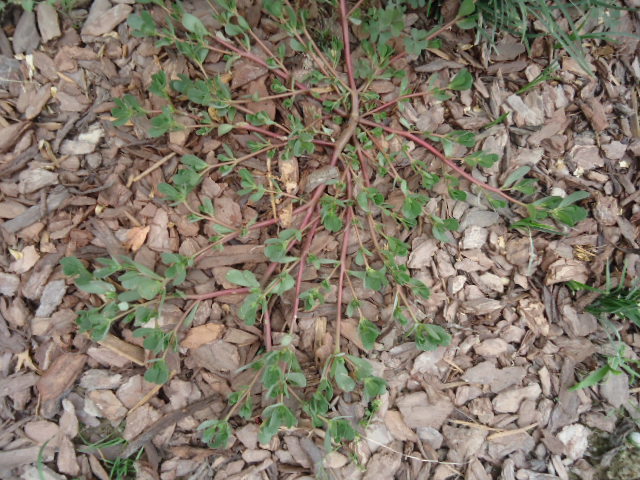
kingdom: Plantae
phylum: Tracheophyta
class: Magnoliopsida
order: Caryophyllales
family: Portulacaceae
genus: Portulaca
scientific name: Portulaca oleracea
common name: Common purslane
